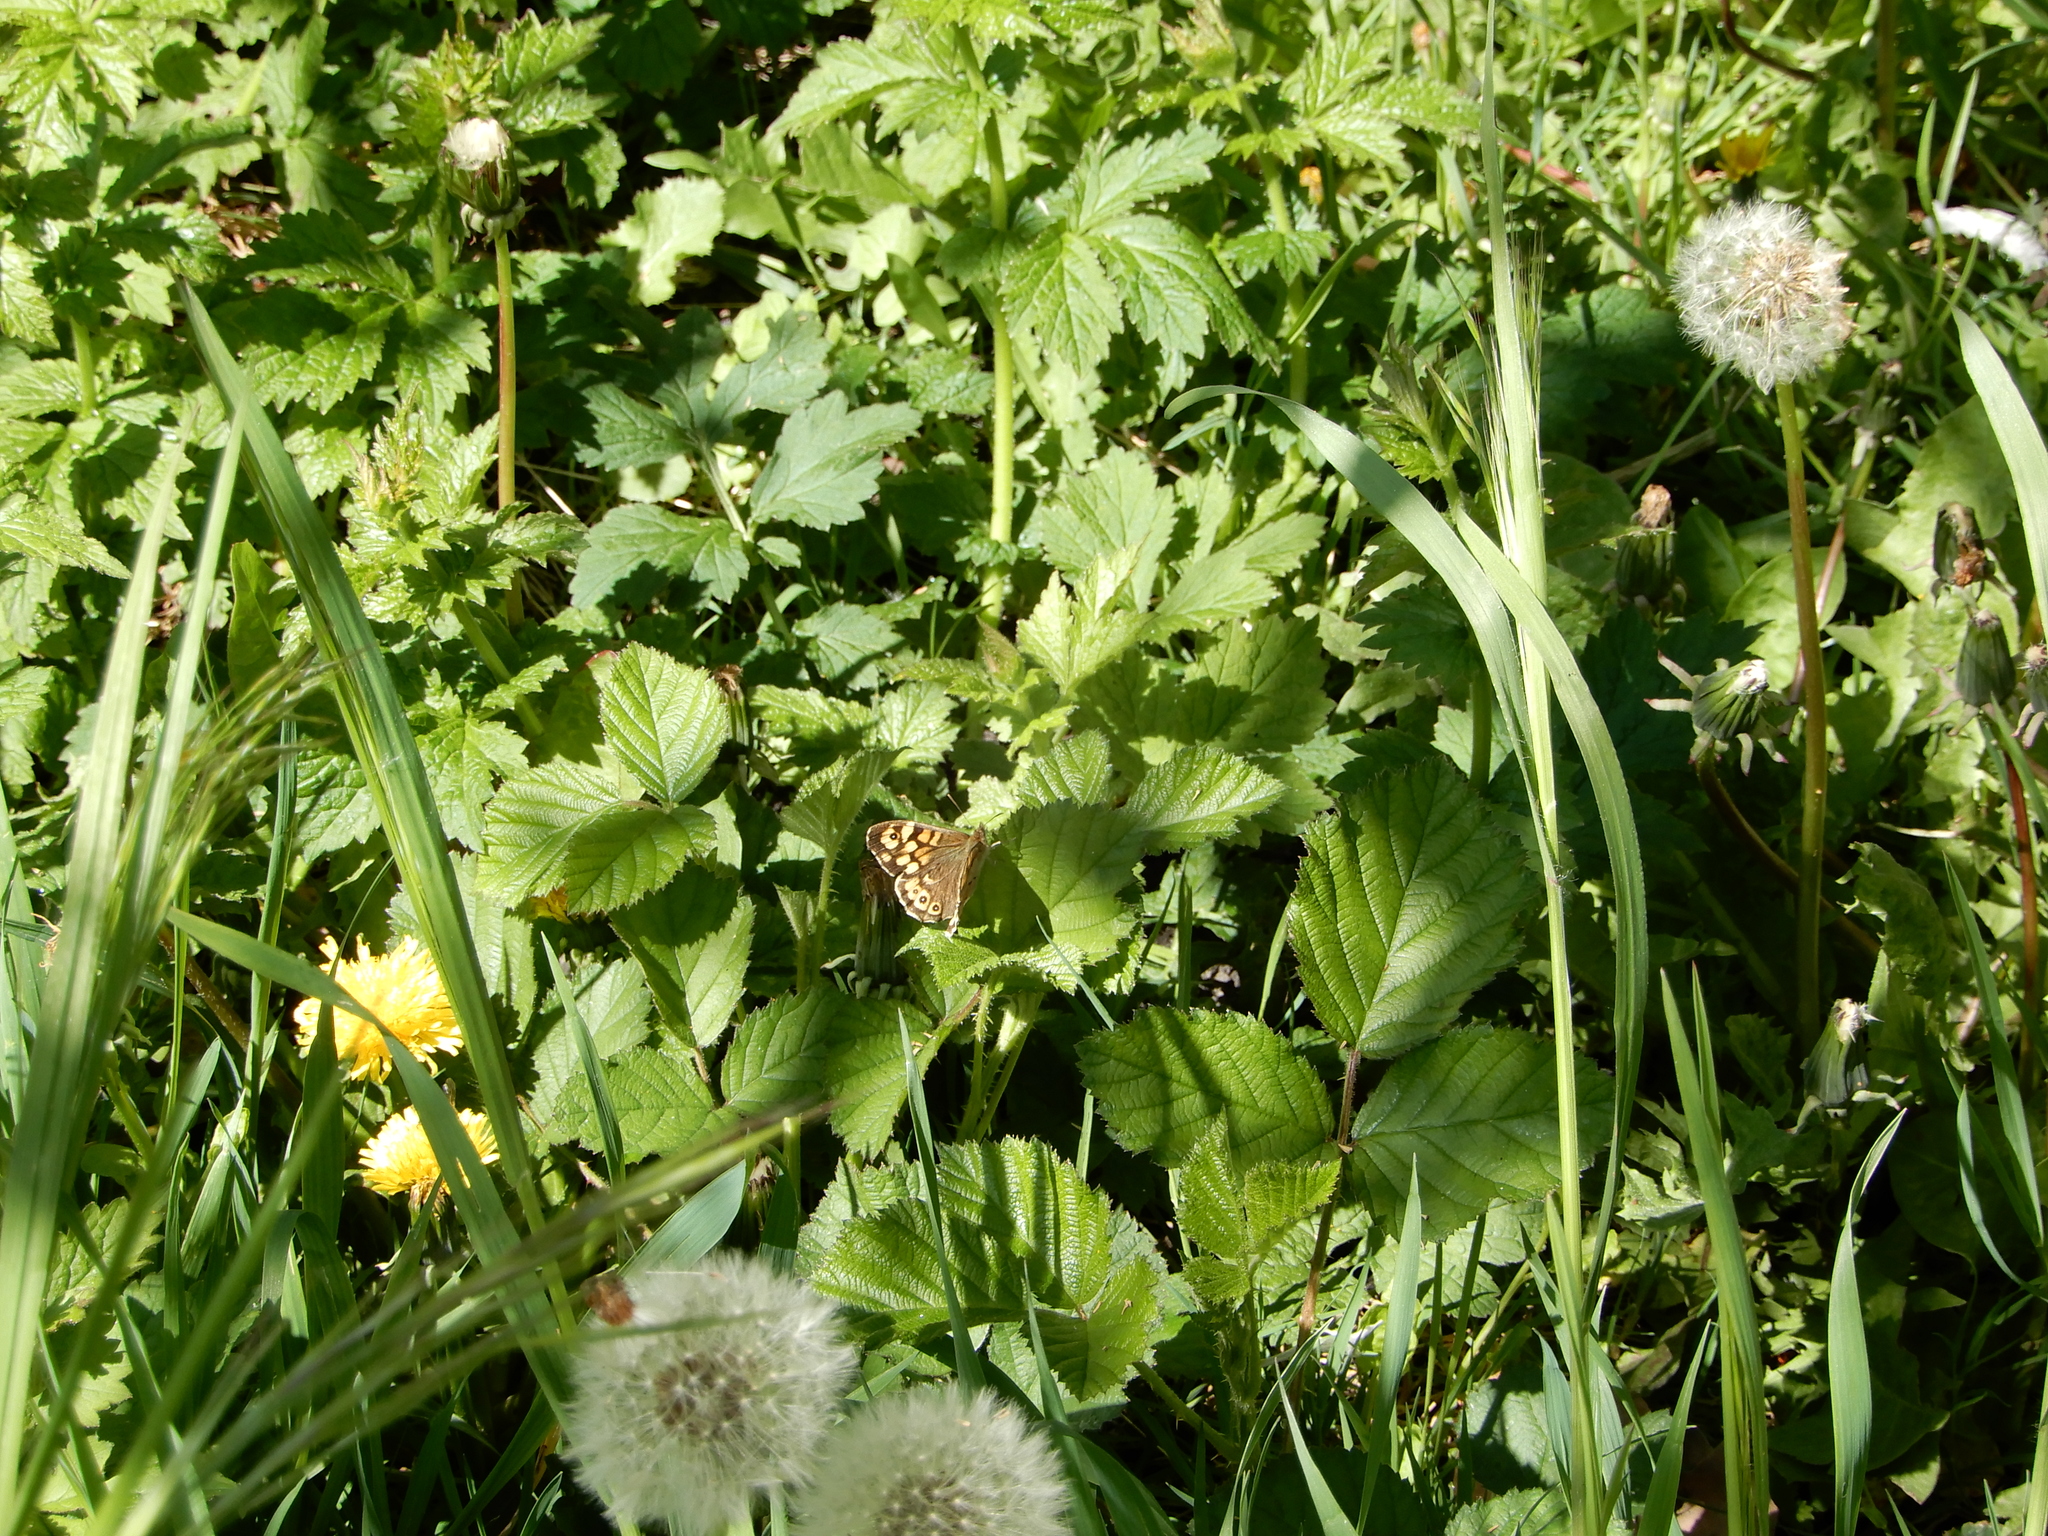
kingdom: Animalia
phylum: Arthropoda
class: Insecta
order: Lepidoptera
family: Nymphalidae
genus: Pararge
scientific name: Pararge aegeria
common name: Speckled wood
